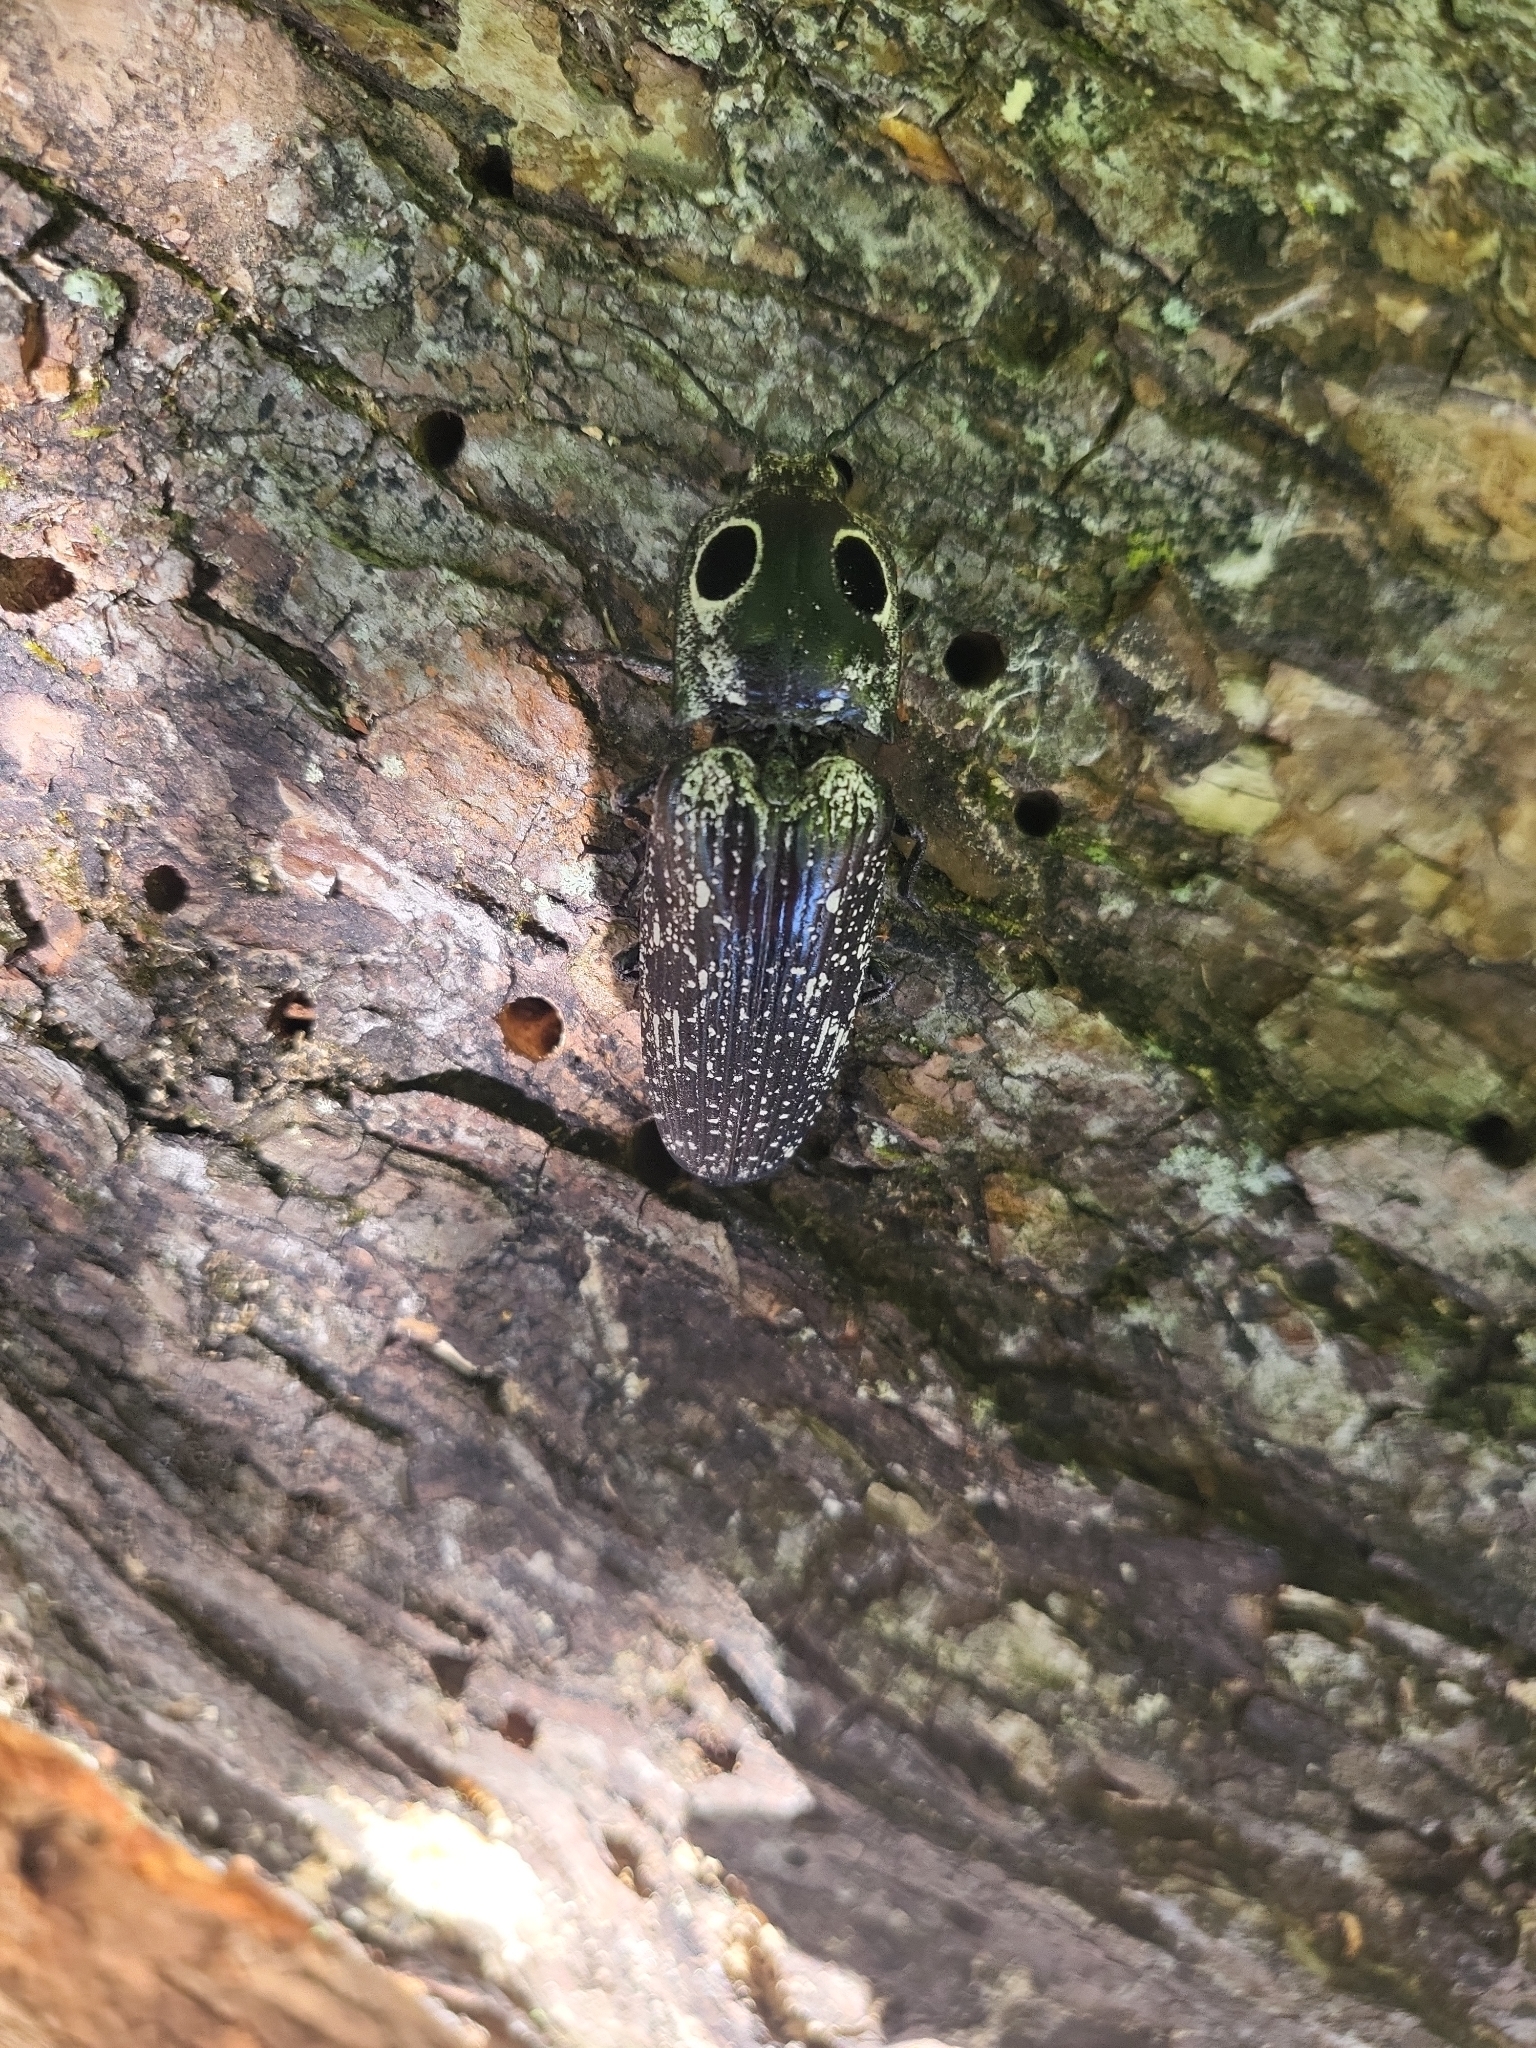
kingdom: Animalia
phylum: Arthropoda
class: Insecta
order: Coleoptera
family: Elateridae
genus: Alaus
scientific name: Alaus oculatus
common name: Eastern eyed click beetle
